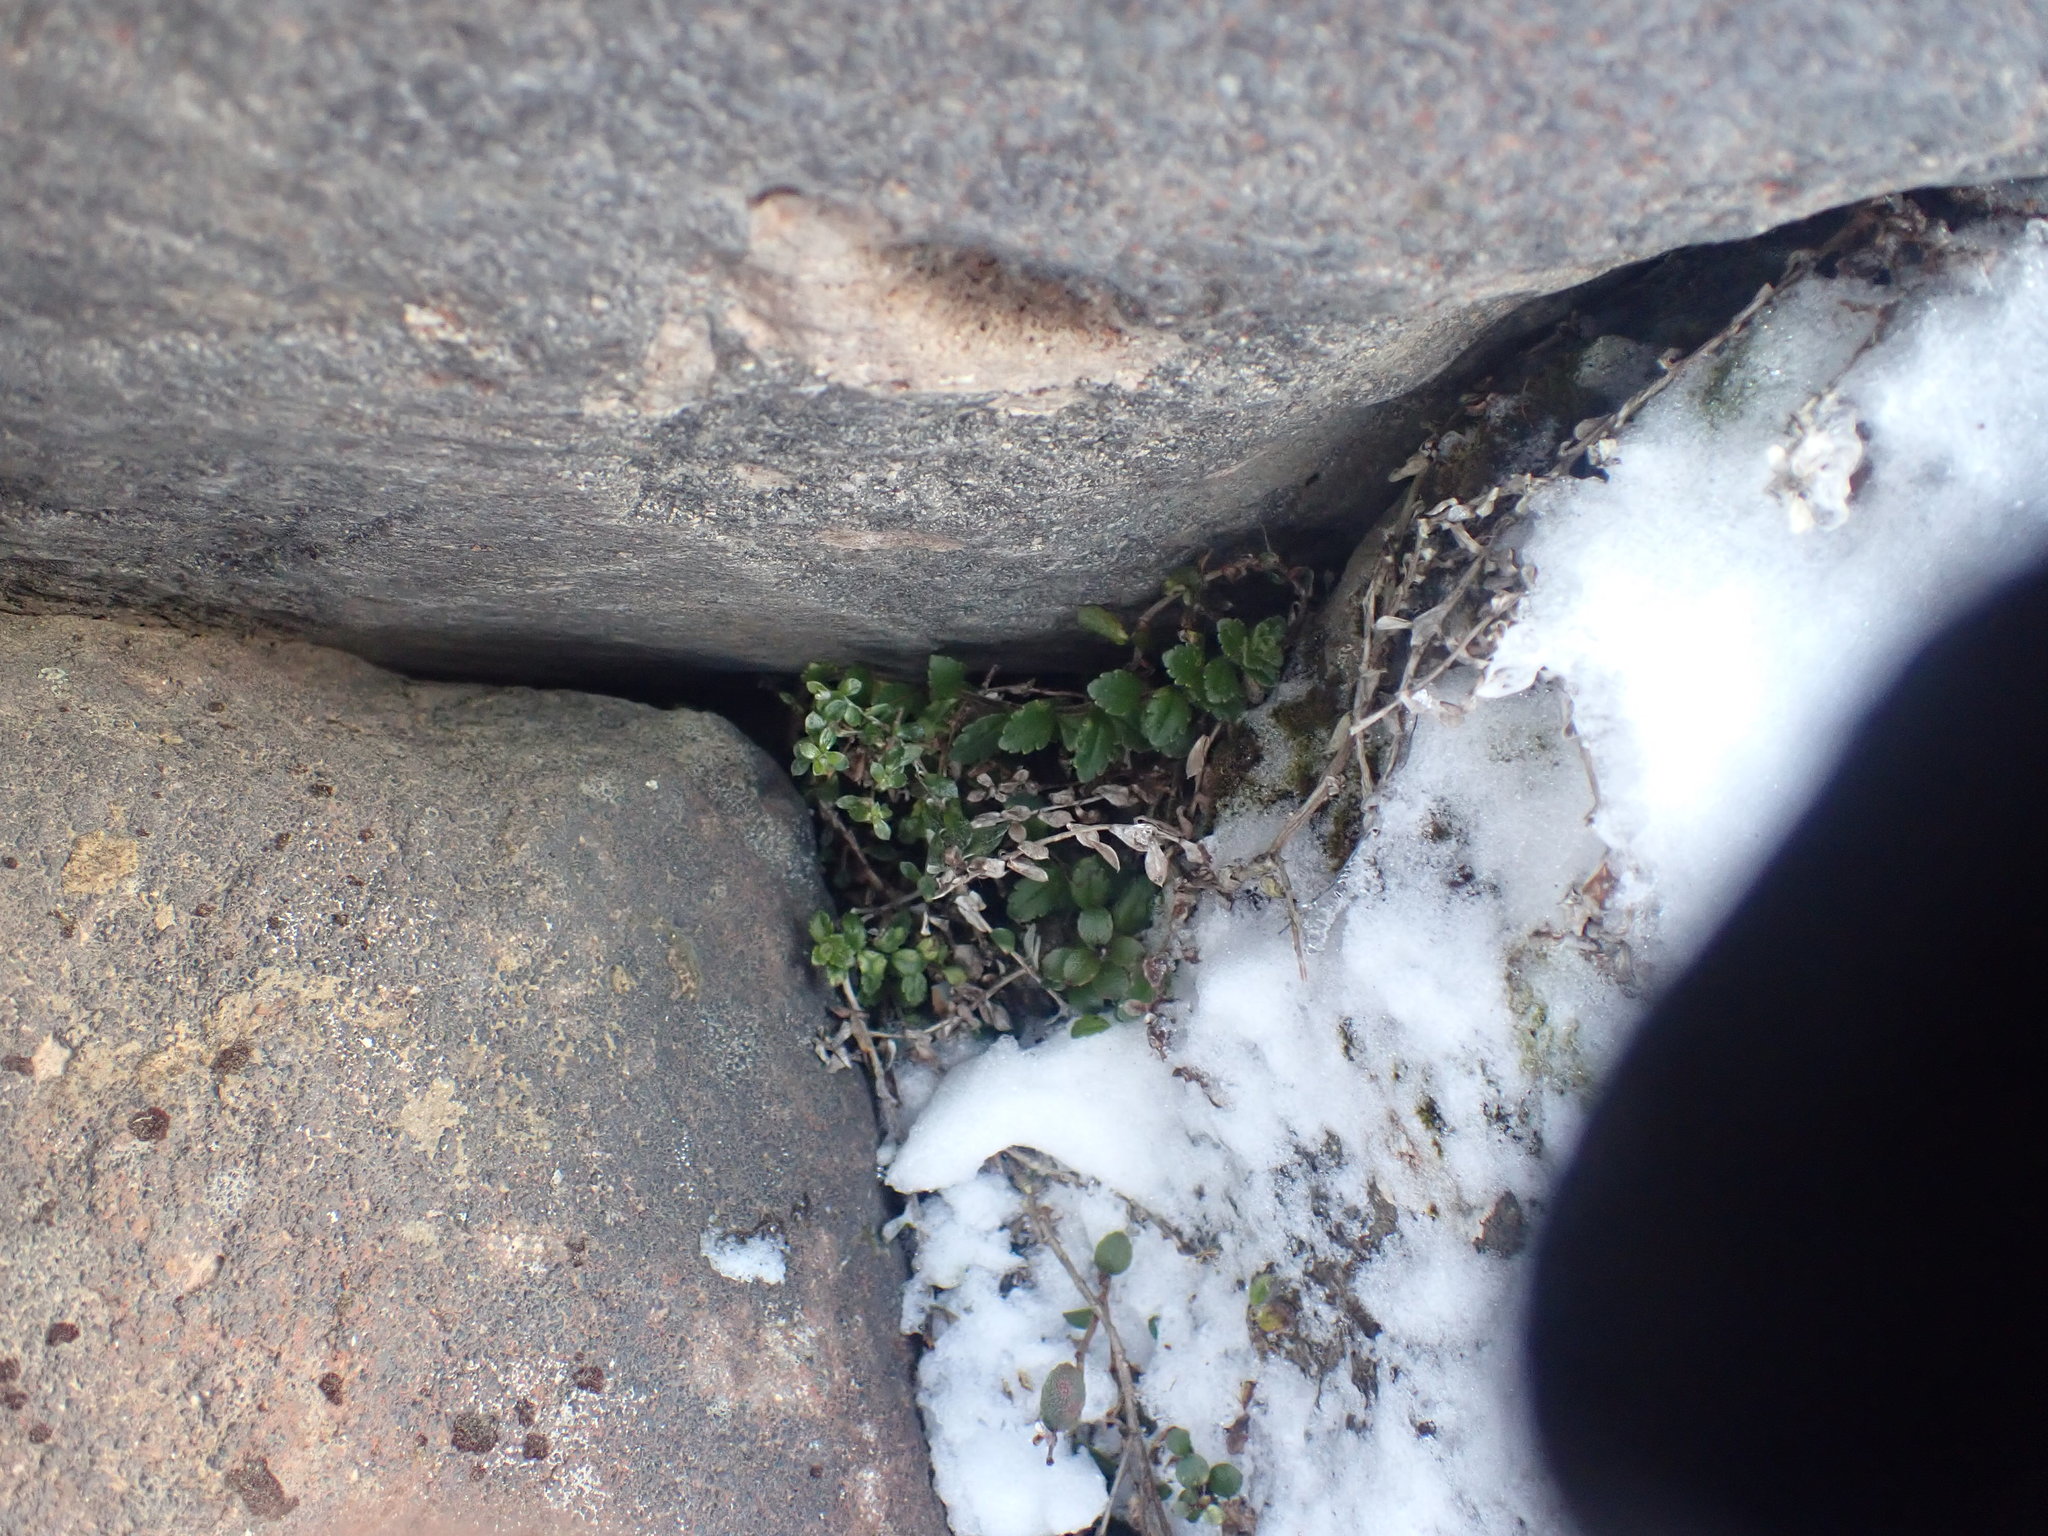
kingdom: Plantae
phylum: Tracheophyta
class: Magnoliopsida
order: Lamiales
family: Plantaginaceae
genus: Veronica
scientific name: Veronica hookeriana
